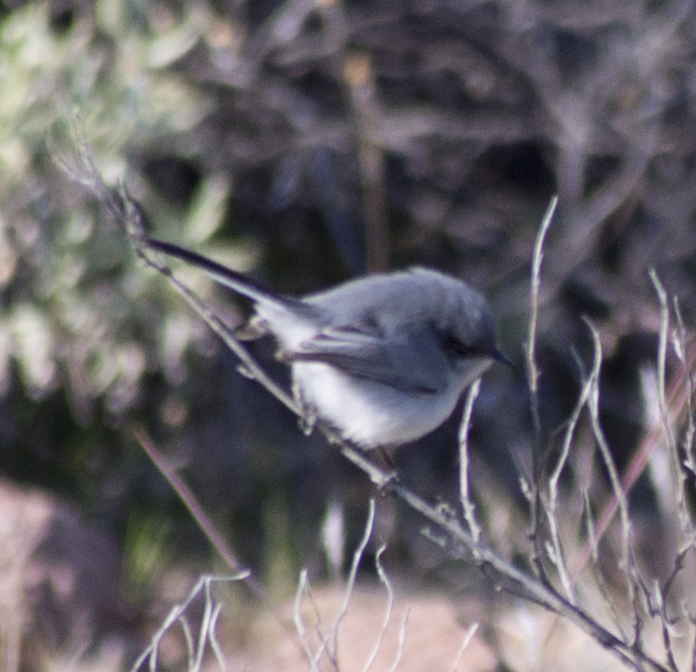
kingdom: Animalia
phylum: Chordata
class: Aves
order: Passeriformes
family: Polioptilidae
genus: Polioptila
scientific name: Polioptila melanura
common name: Black-tailed gnatcatcher
